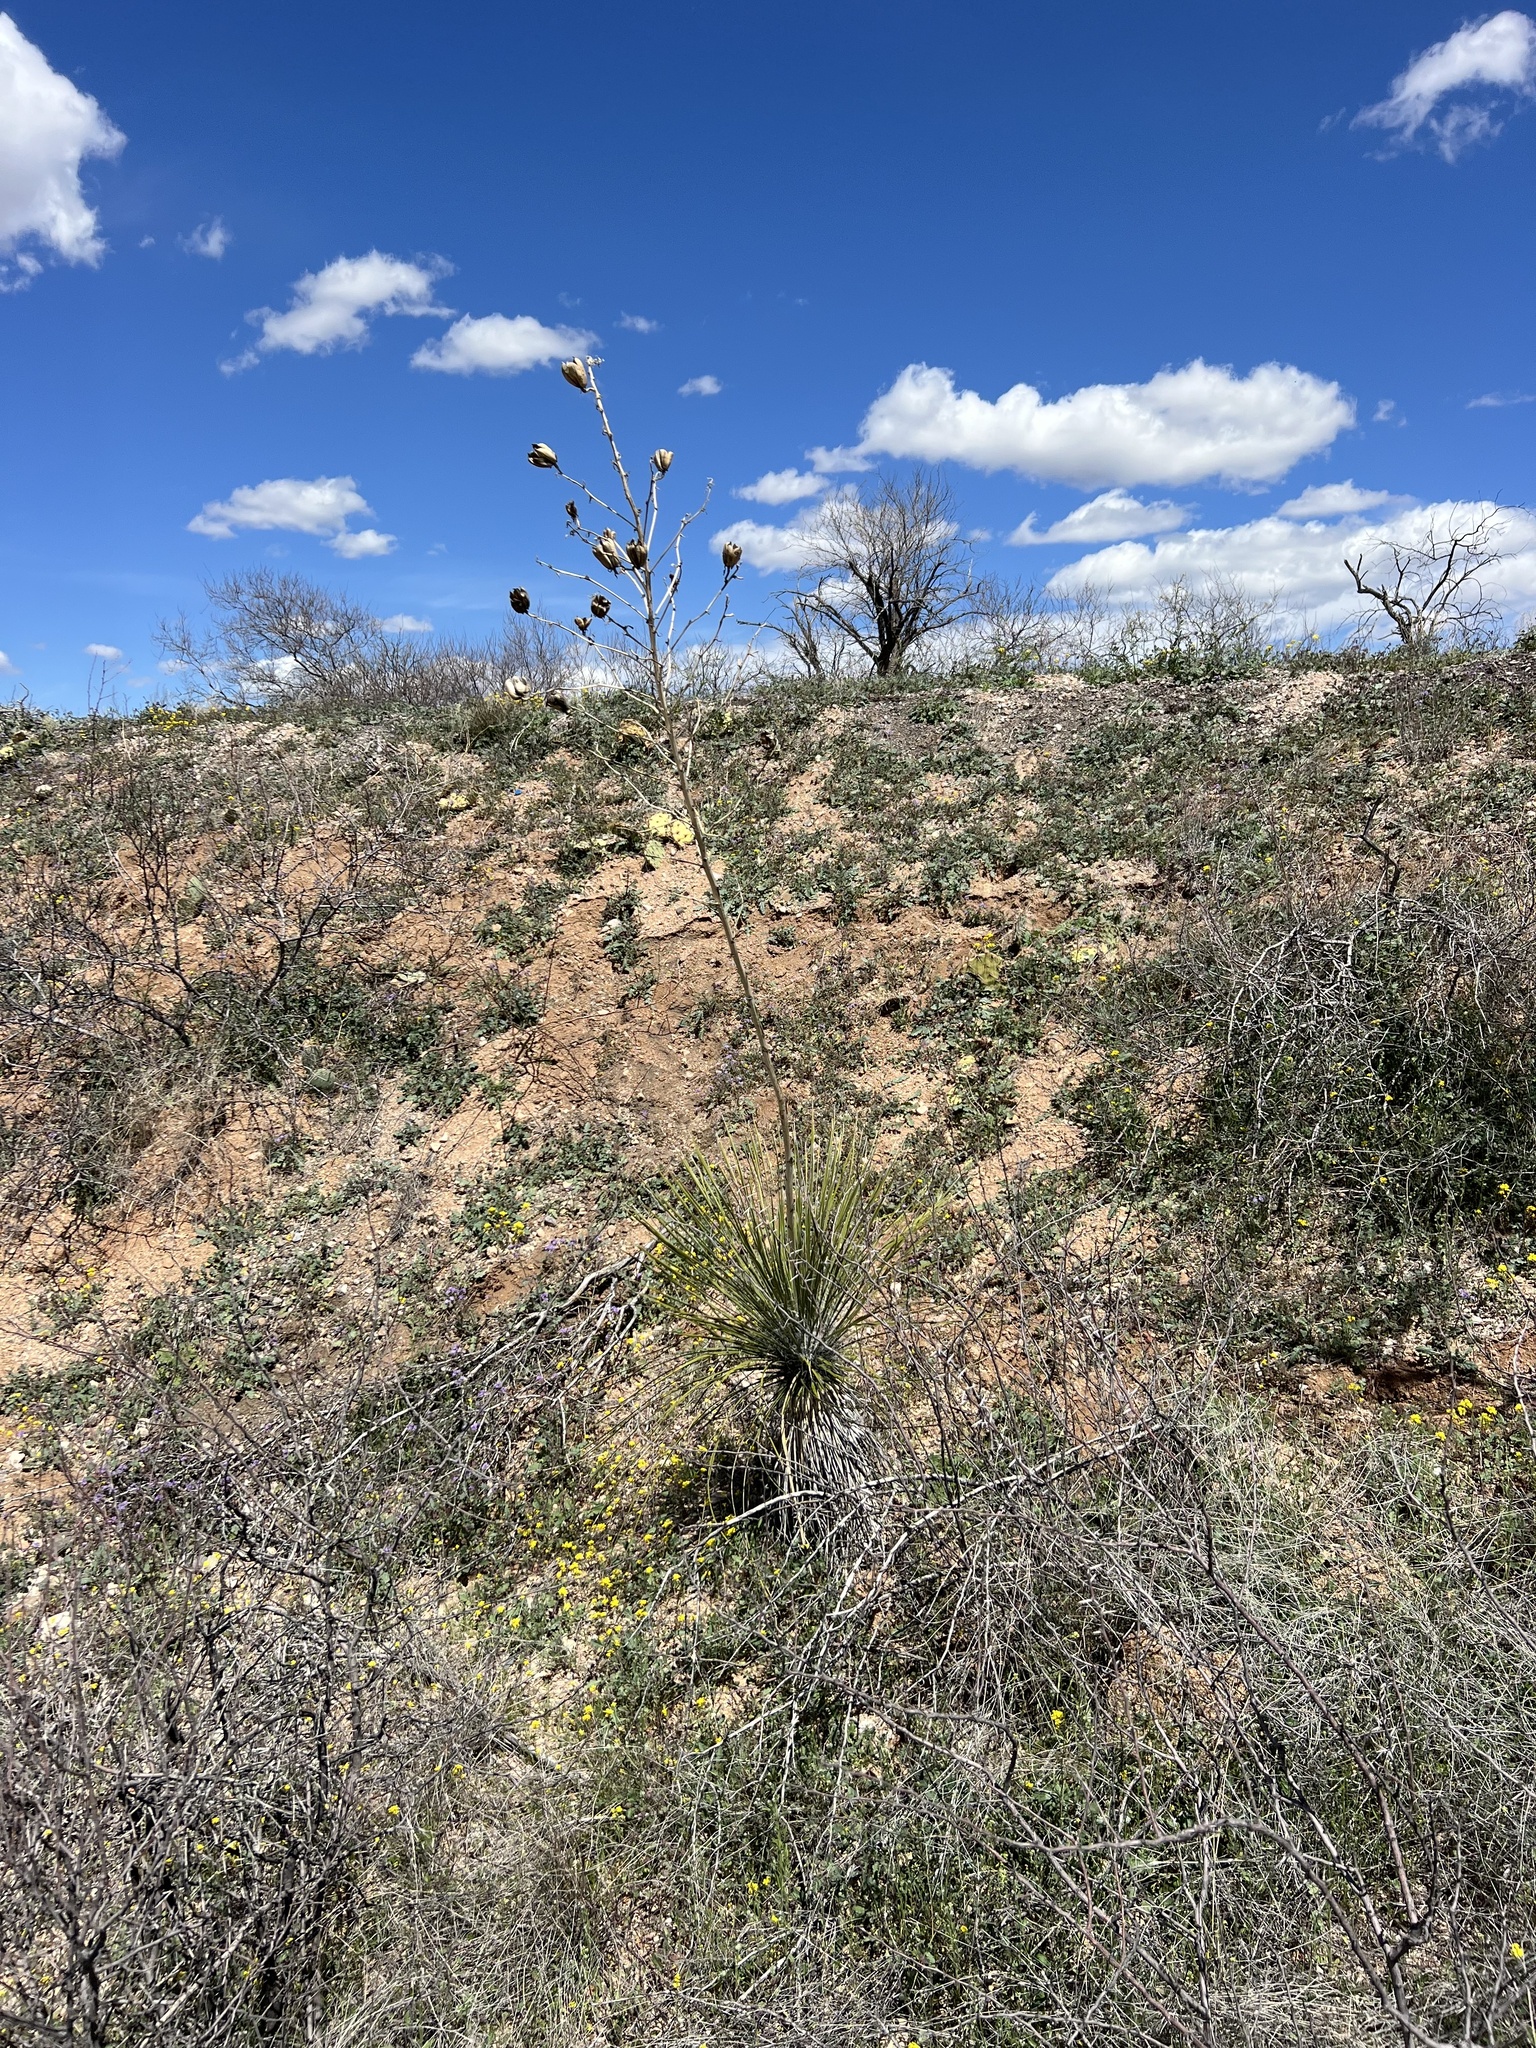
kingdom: Plantae
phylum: Tracheophyta
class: Liliopsida
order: Asparagales
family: Asparagaceae
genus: Yucca
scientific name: Yucca elata
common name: Palmella
